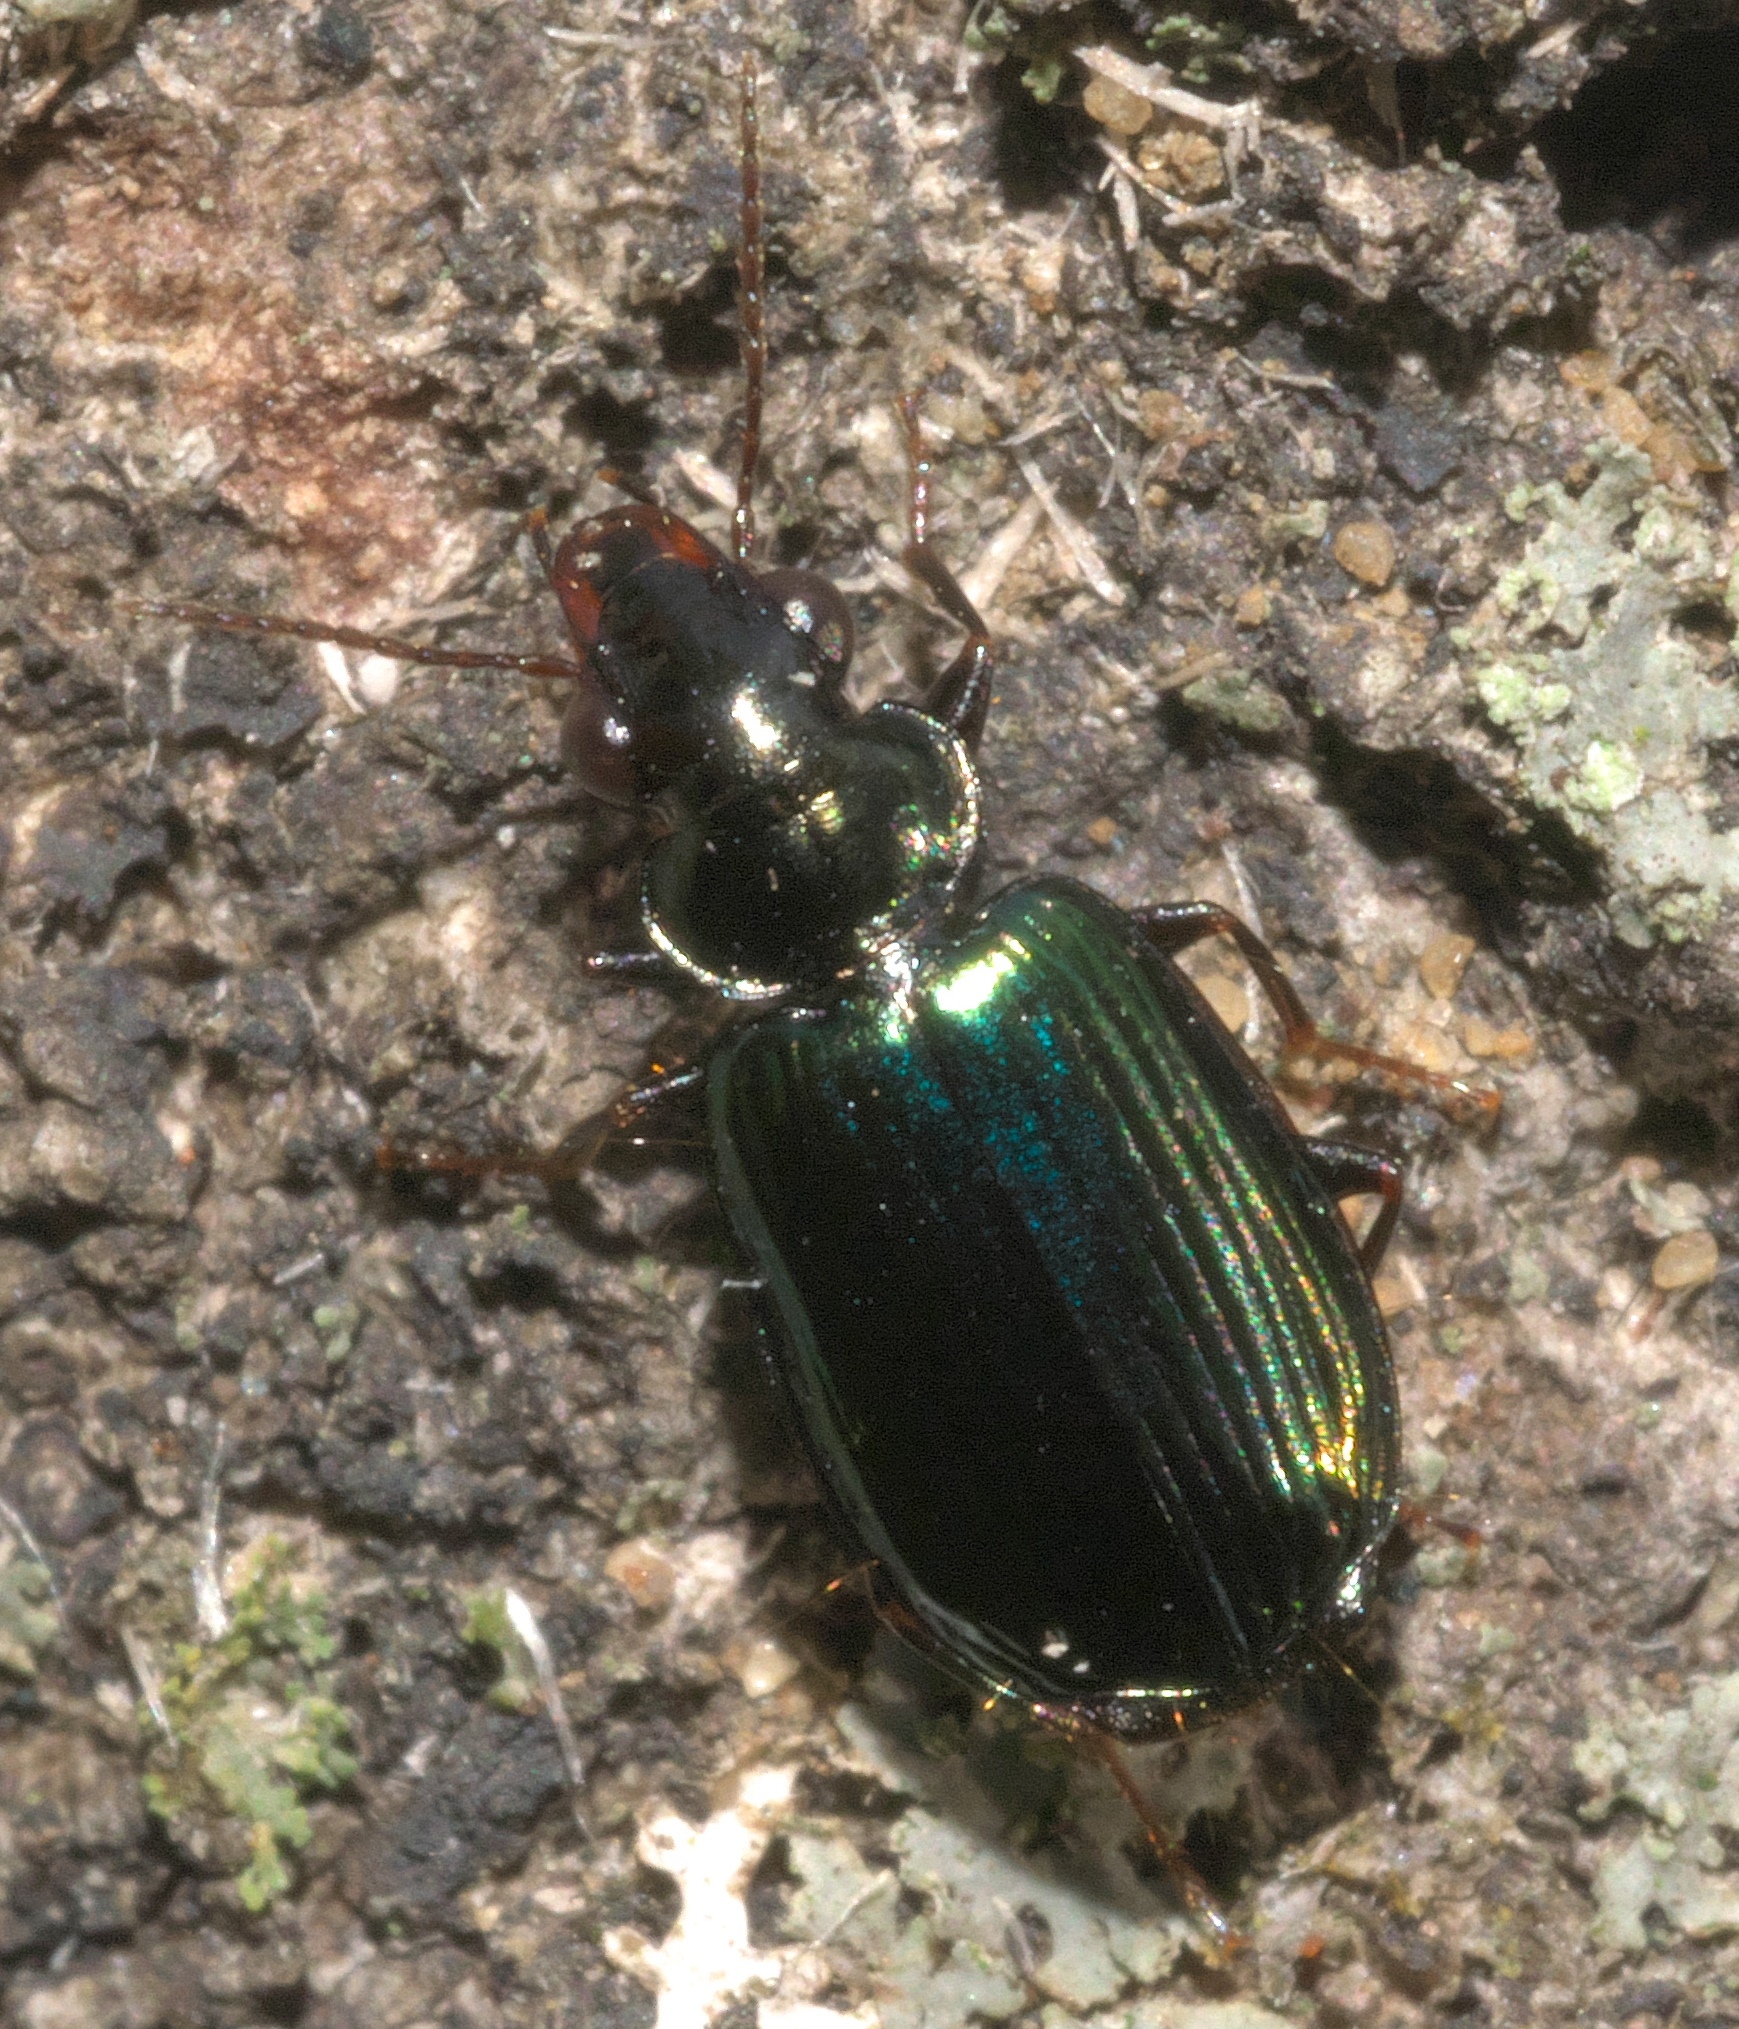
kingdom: Animalia
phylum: Arthropoda
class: Insecta
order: Coleoptera
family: Carabidae
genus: Coptodera
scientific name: Coptodera aerata
